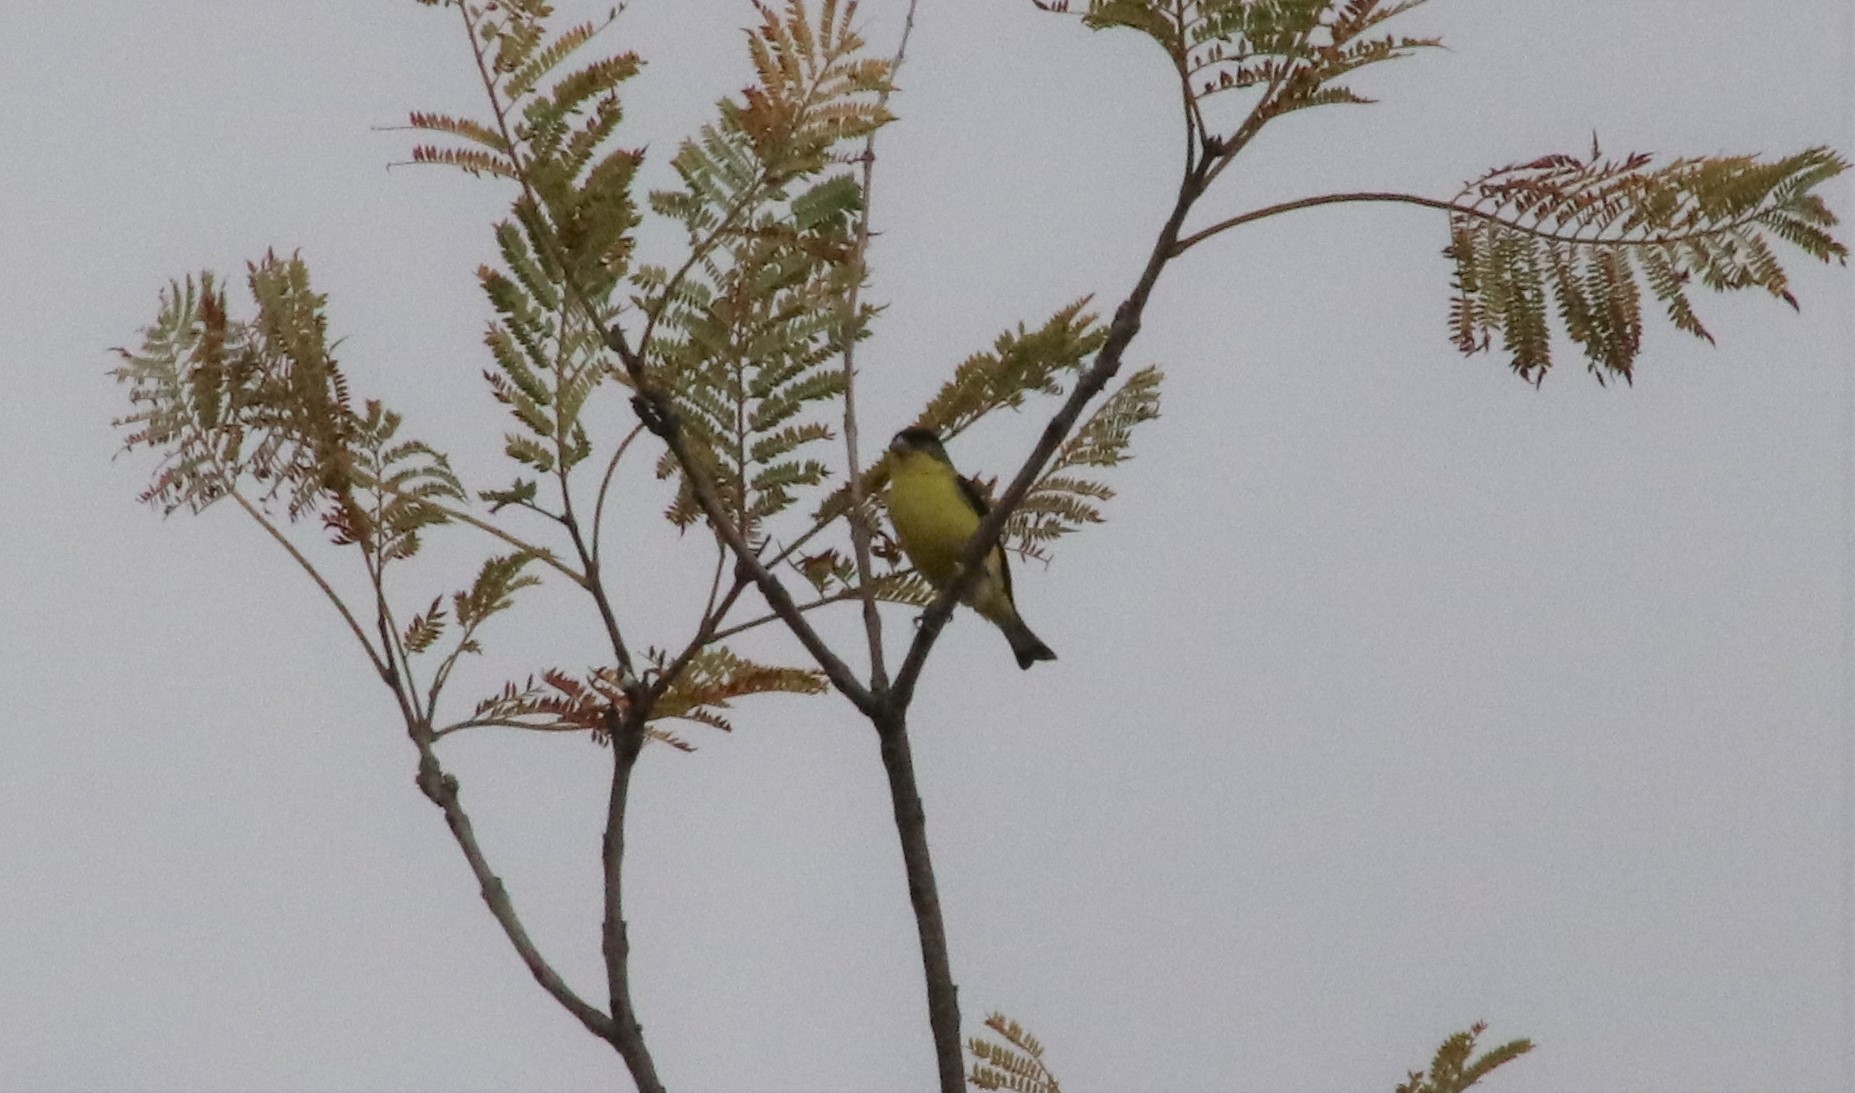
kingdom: Animalia
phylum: Chordata
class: Aves
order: Passeriformes
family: Fringillidae
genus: Spinus
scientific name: Spinus psaltria
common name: Lesser goldfinch
